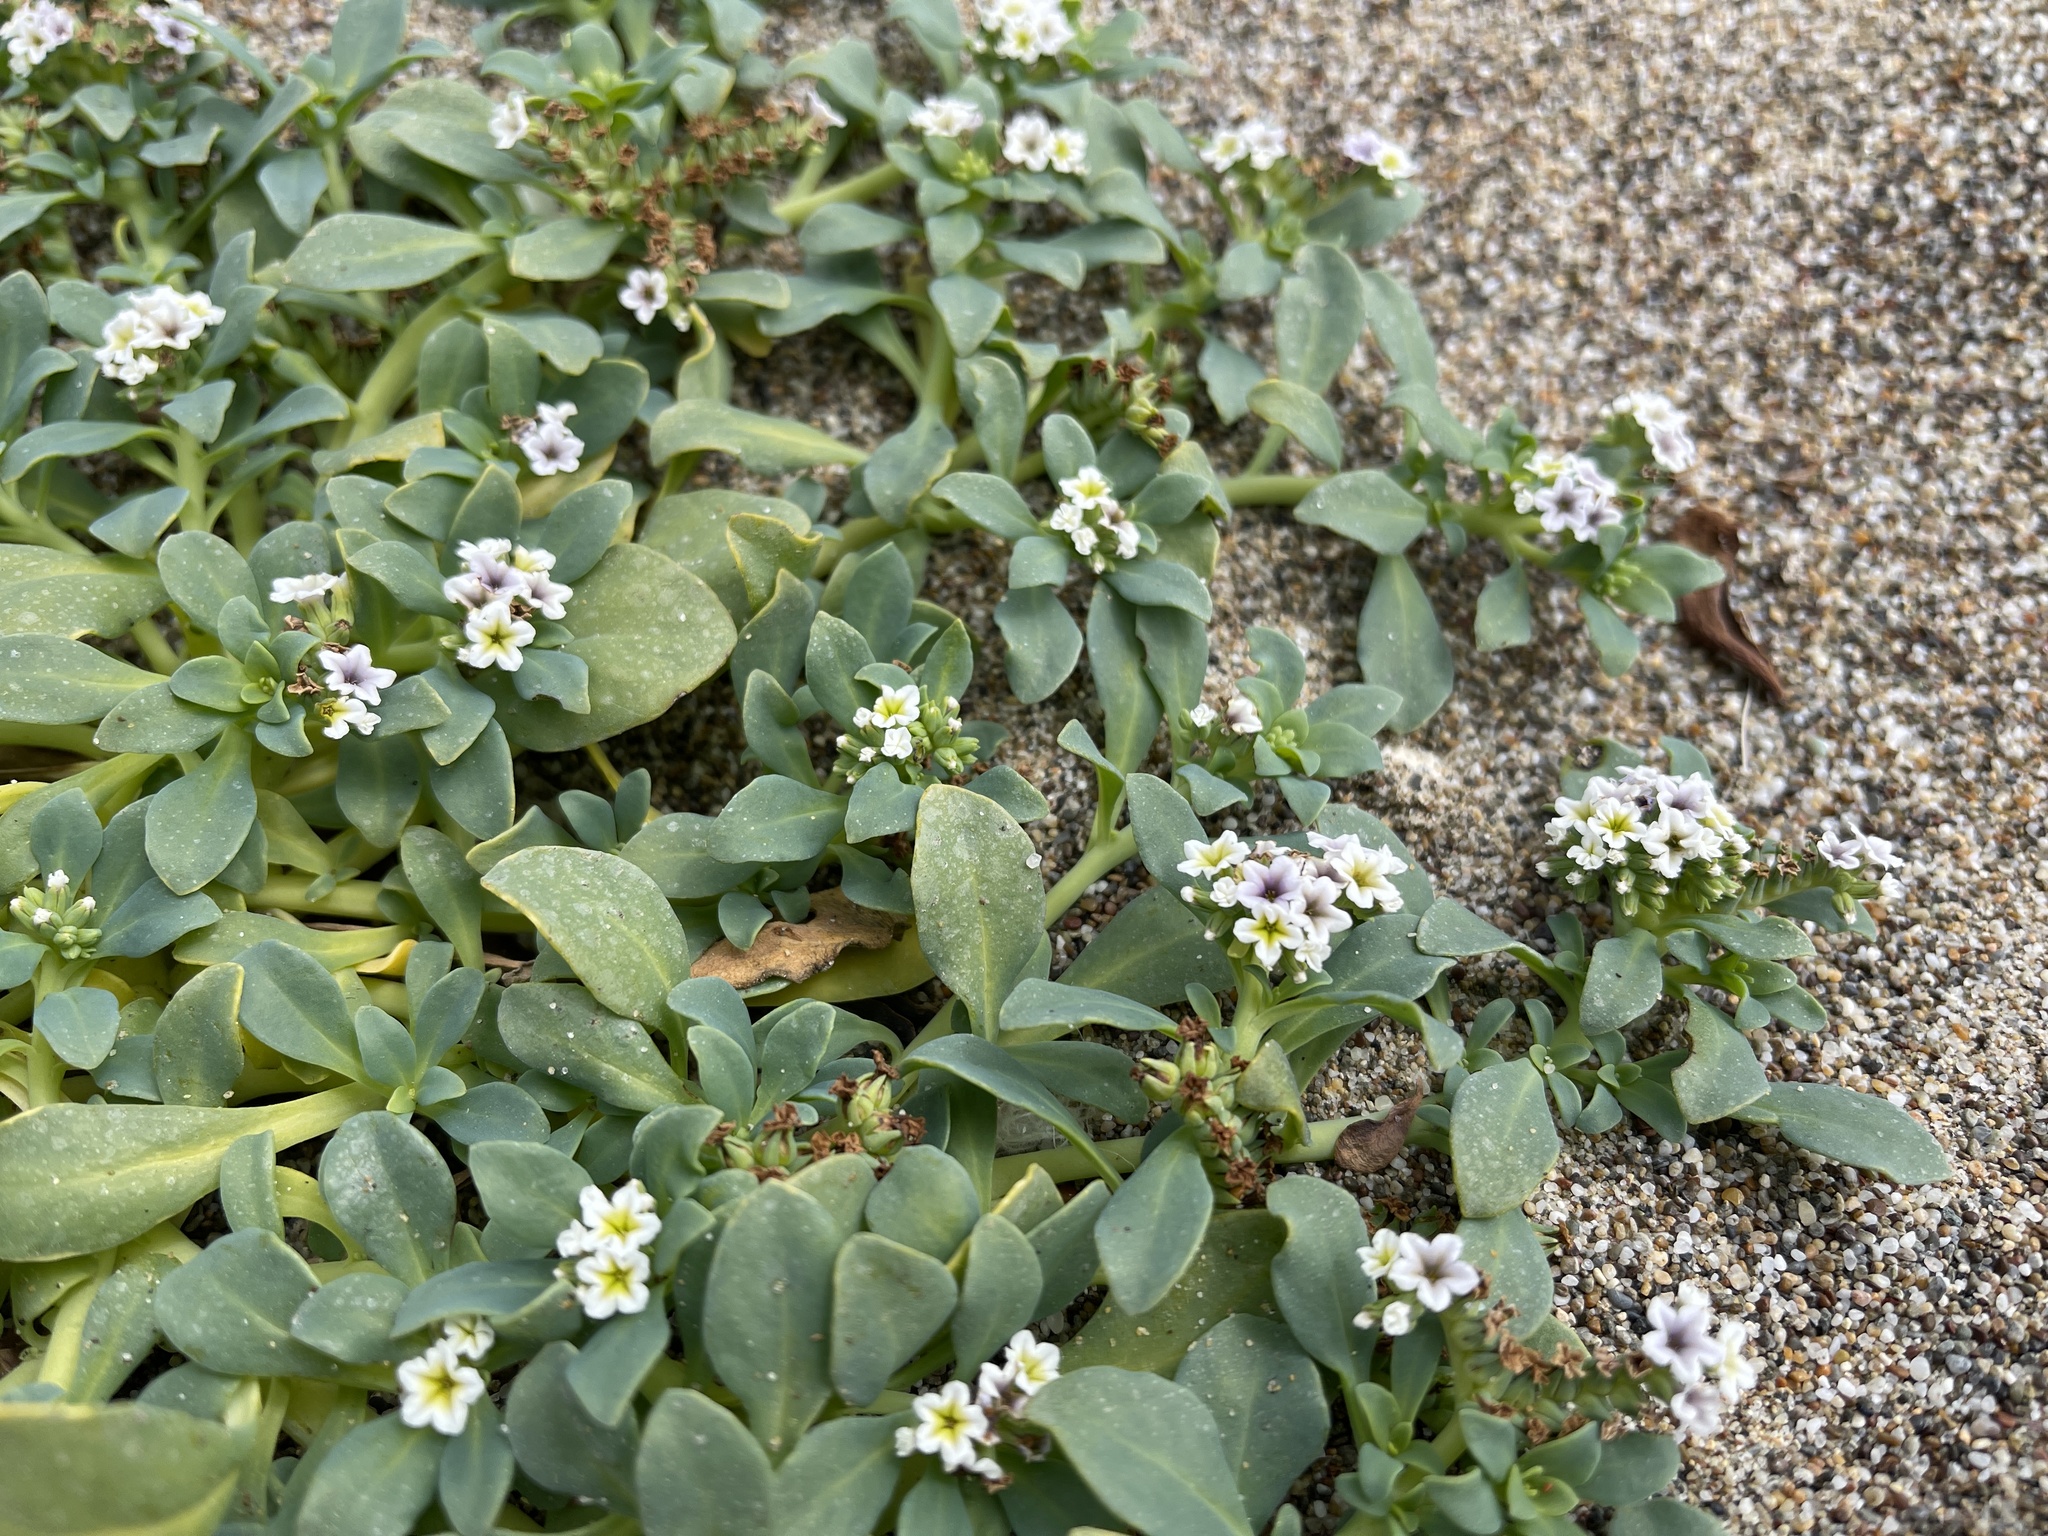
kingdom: Plantae
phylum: Tracheophyta
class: Magnoliopsida
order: Boraginales
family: Heliotropiaceae
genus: Heliotropium
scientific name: Heliotropium curassavicum
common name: Seaside heliotrope
